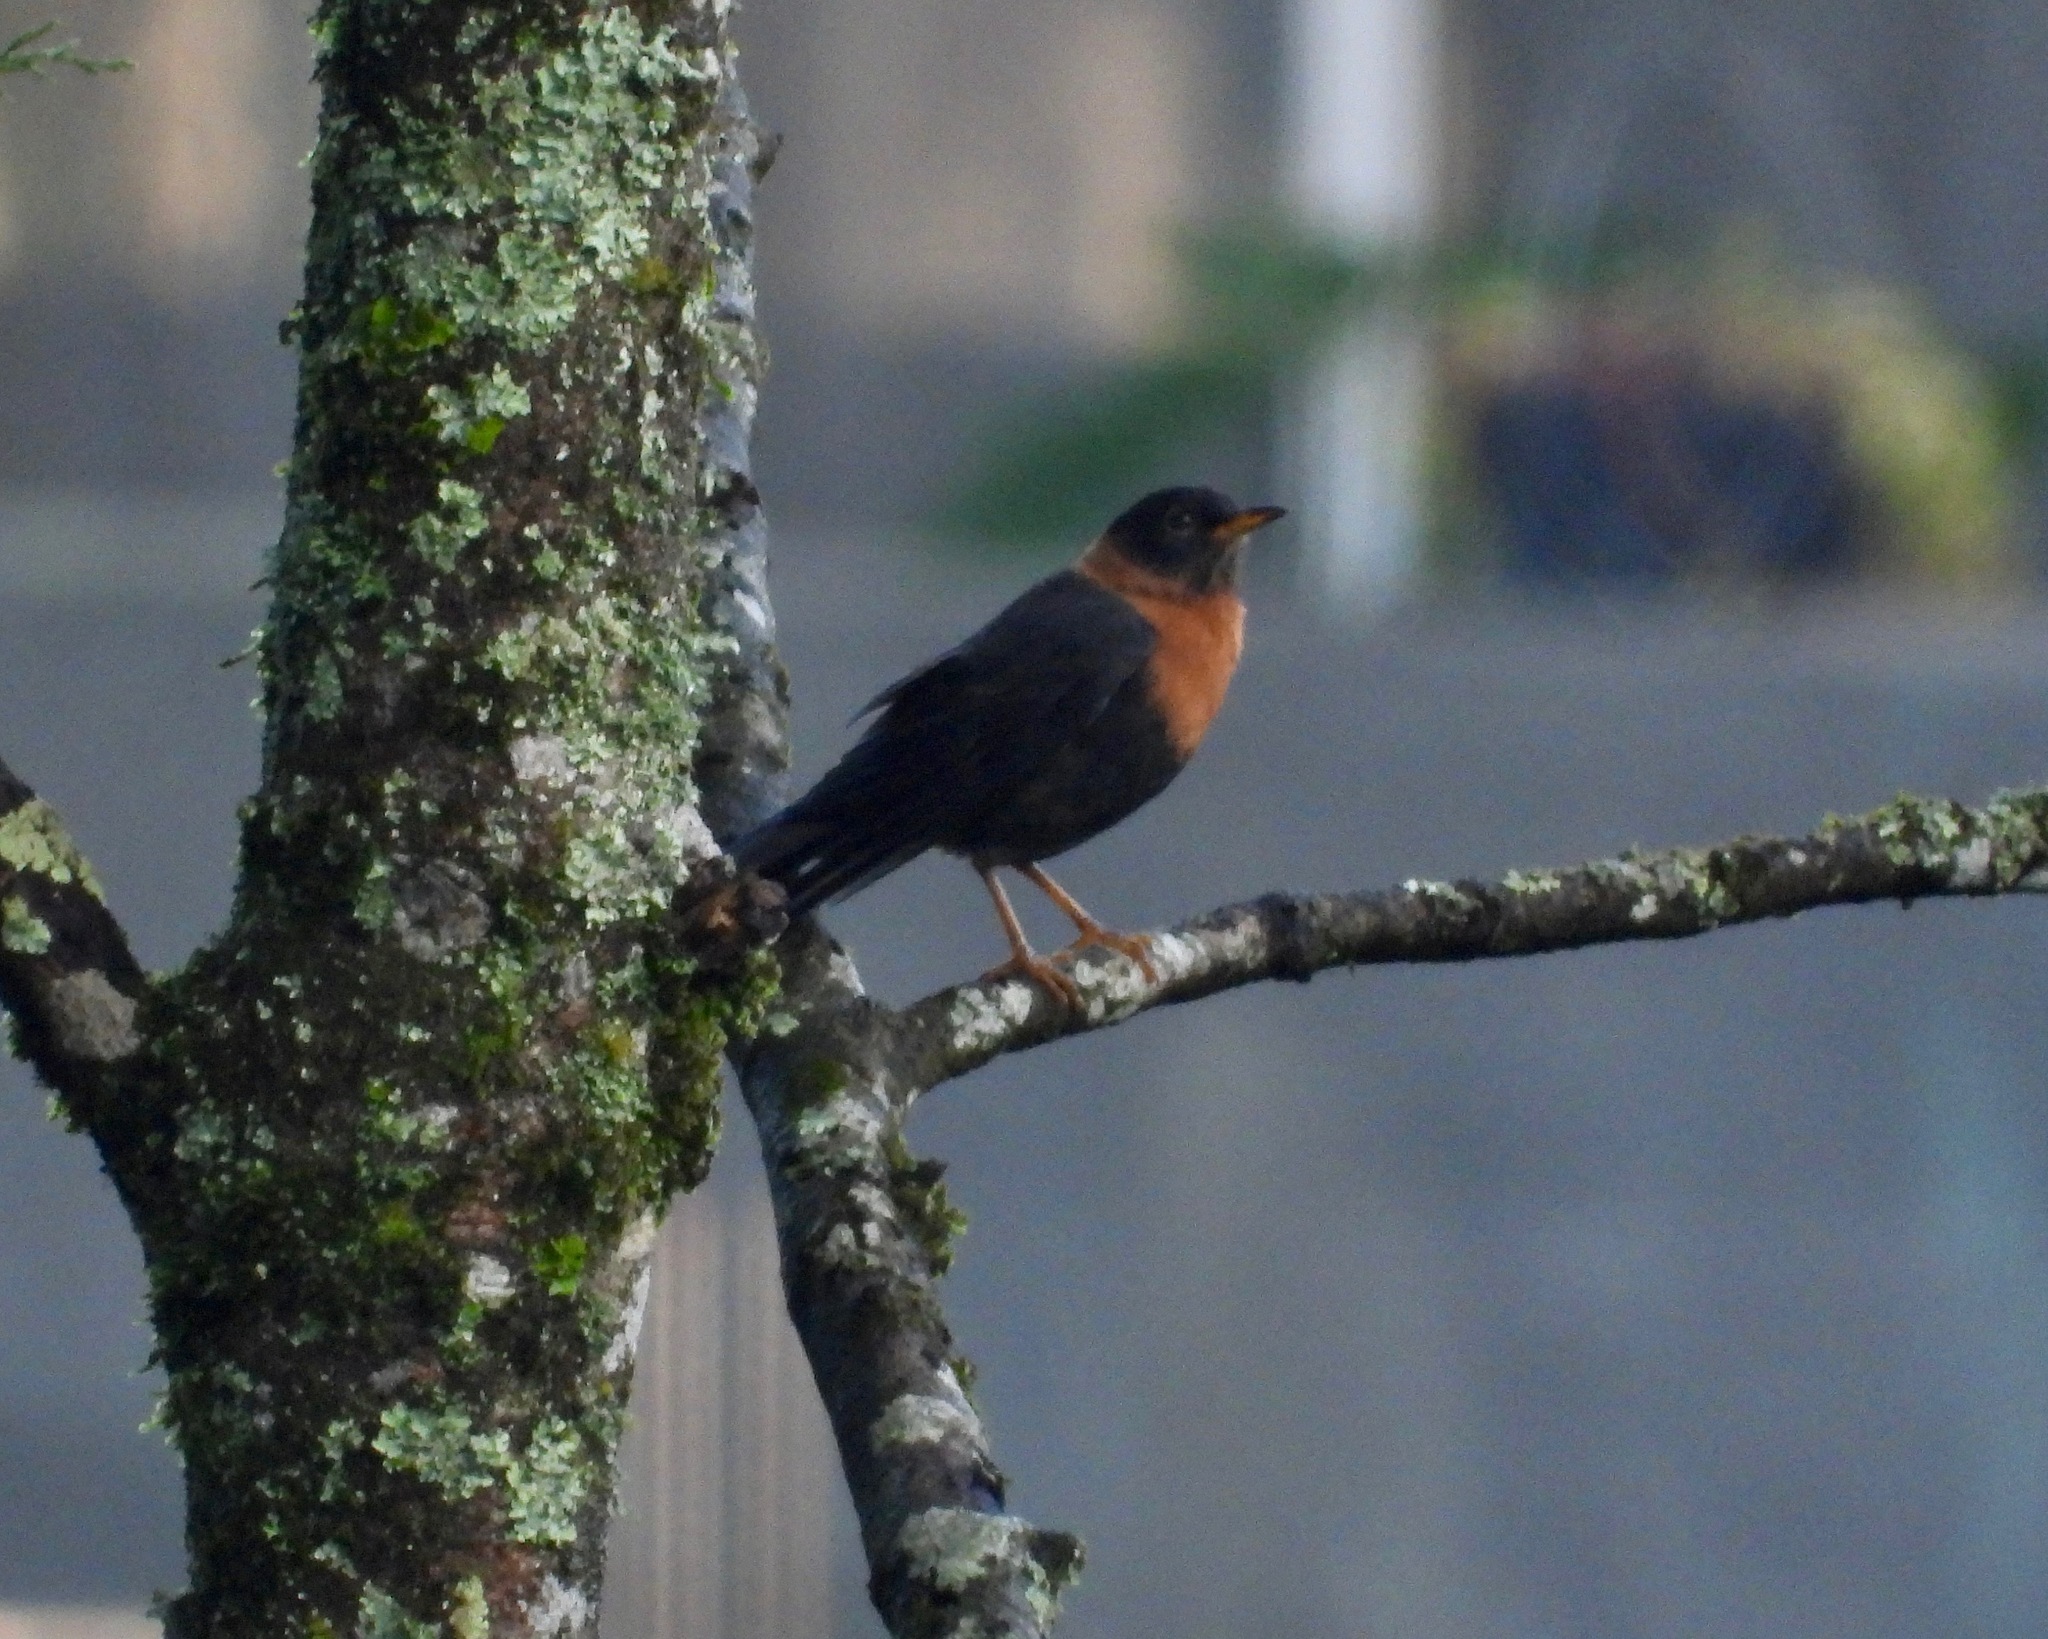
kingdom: Animalia
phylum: Chordata
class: Aves
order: Passeriformes
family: Turdidae
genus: Turdus
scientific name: Turdus rufitorques
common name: Rufous-collared thrush
